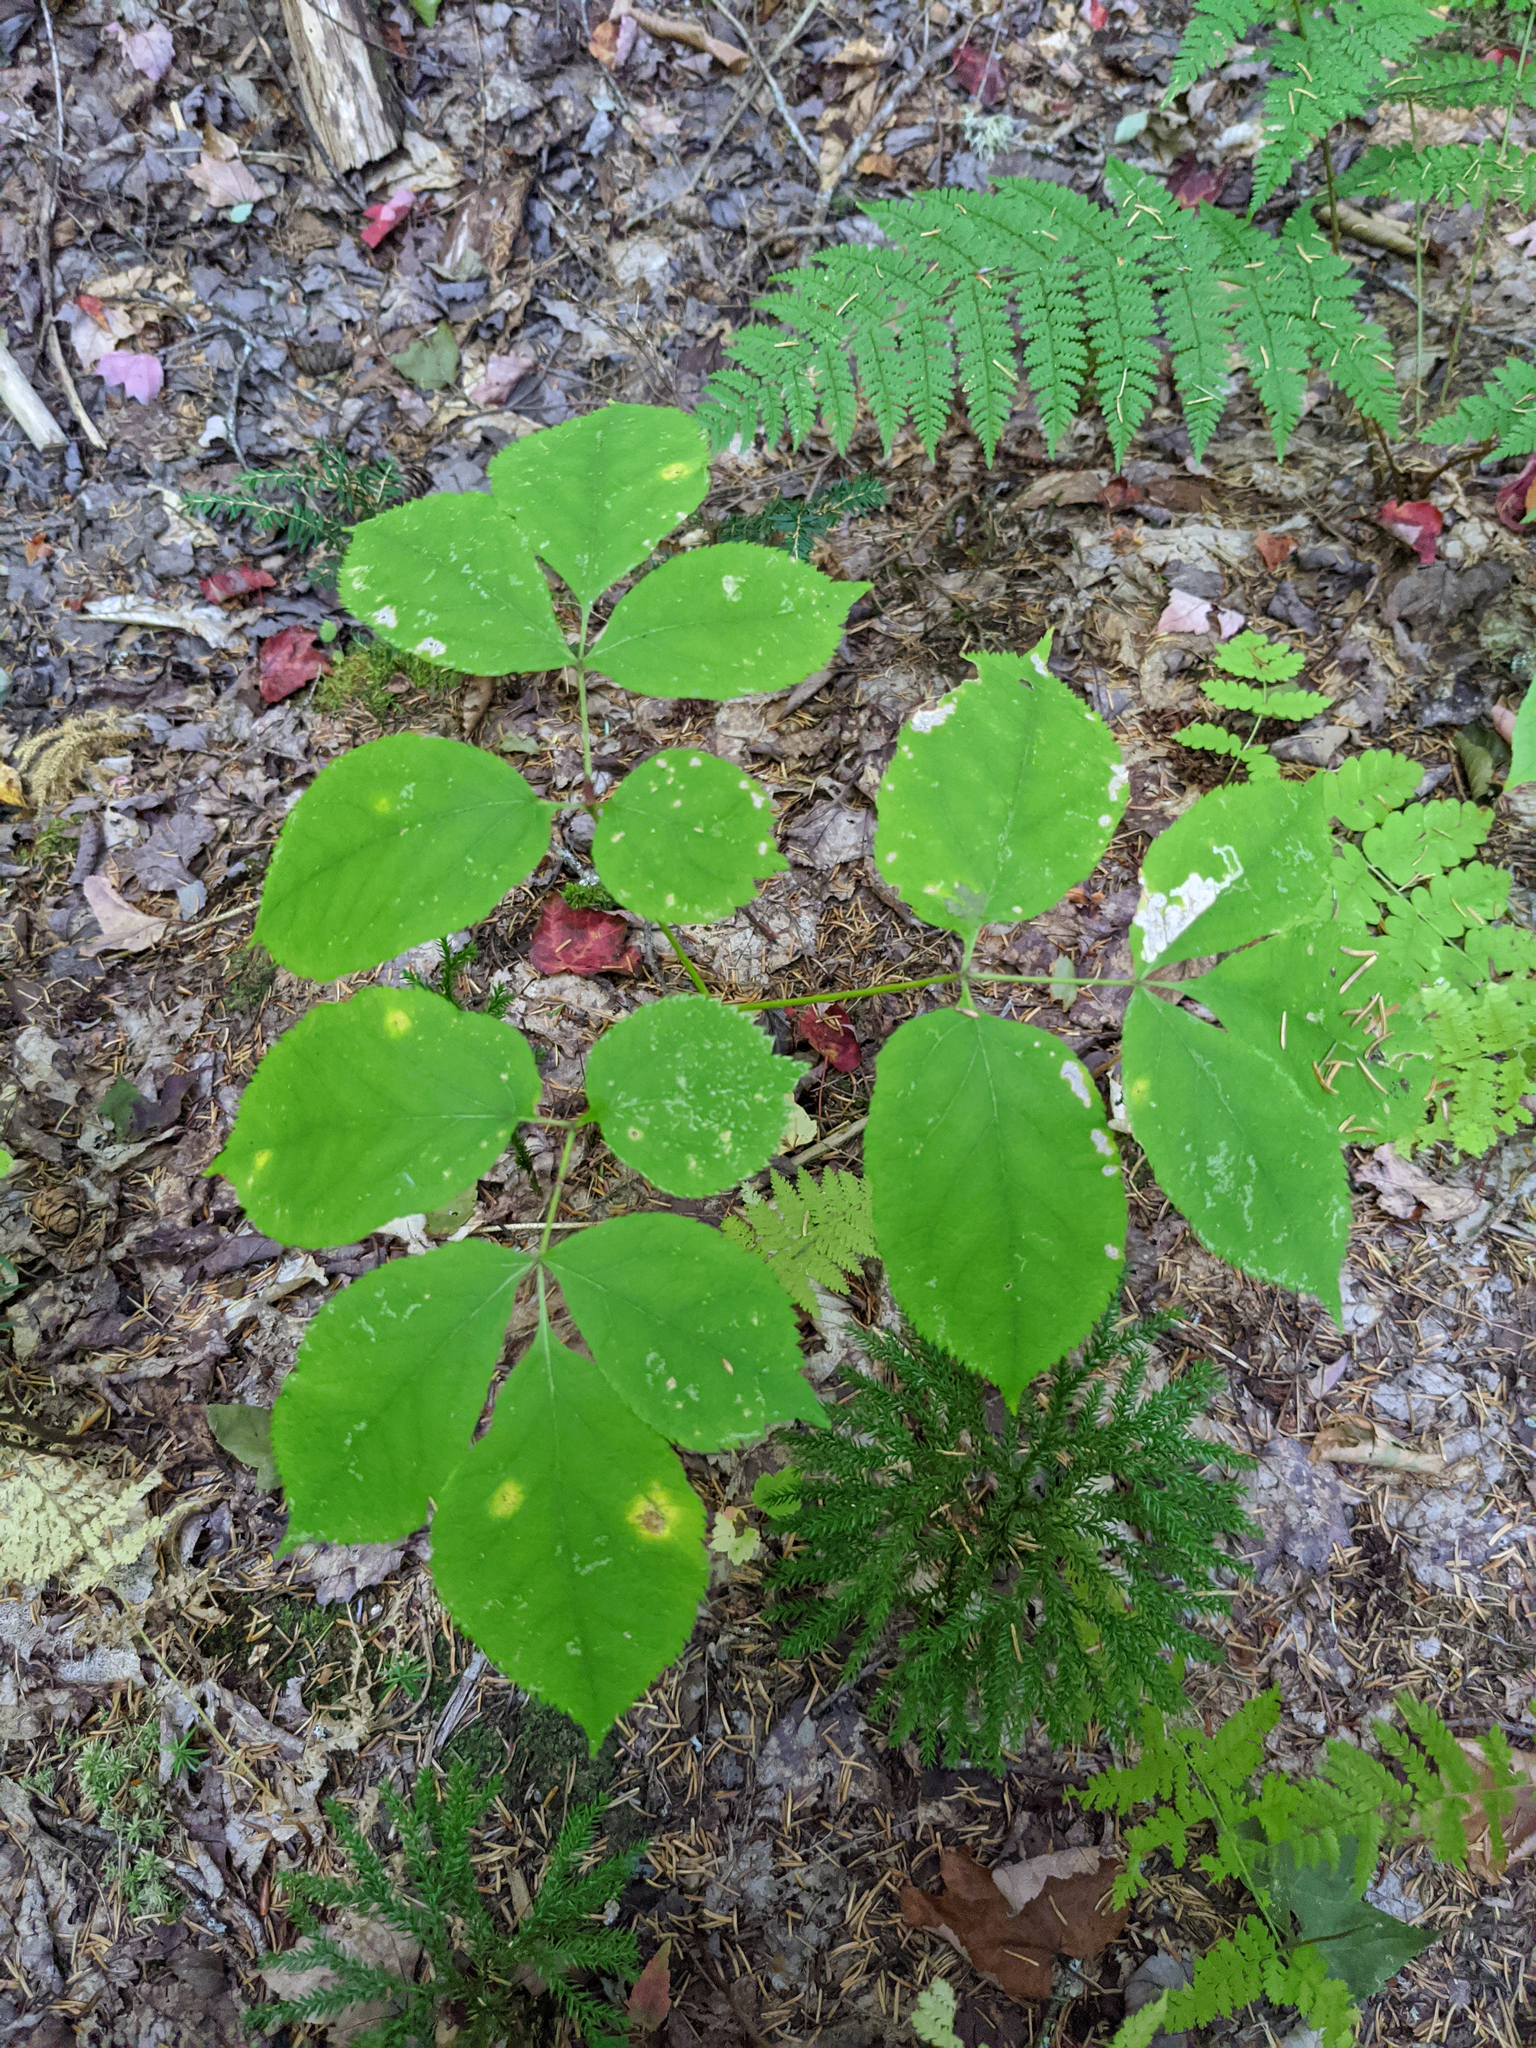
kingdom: Plantae
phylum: Tracheophyta
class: Magnoliopsida
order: Apiales
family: Araliaceae
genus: Aralia
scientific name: Aralia nudicaulis
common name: Wild sarsaparilla
